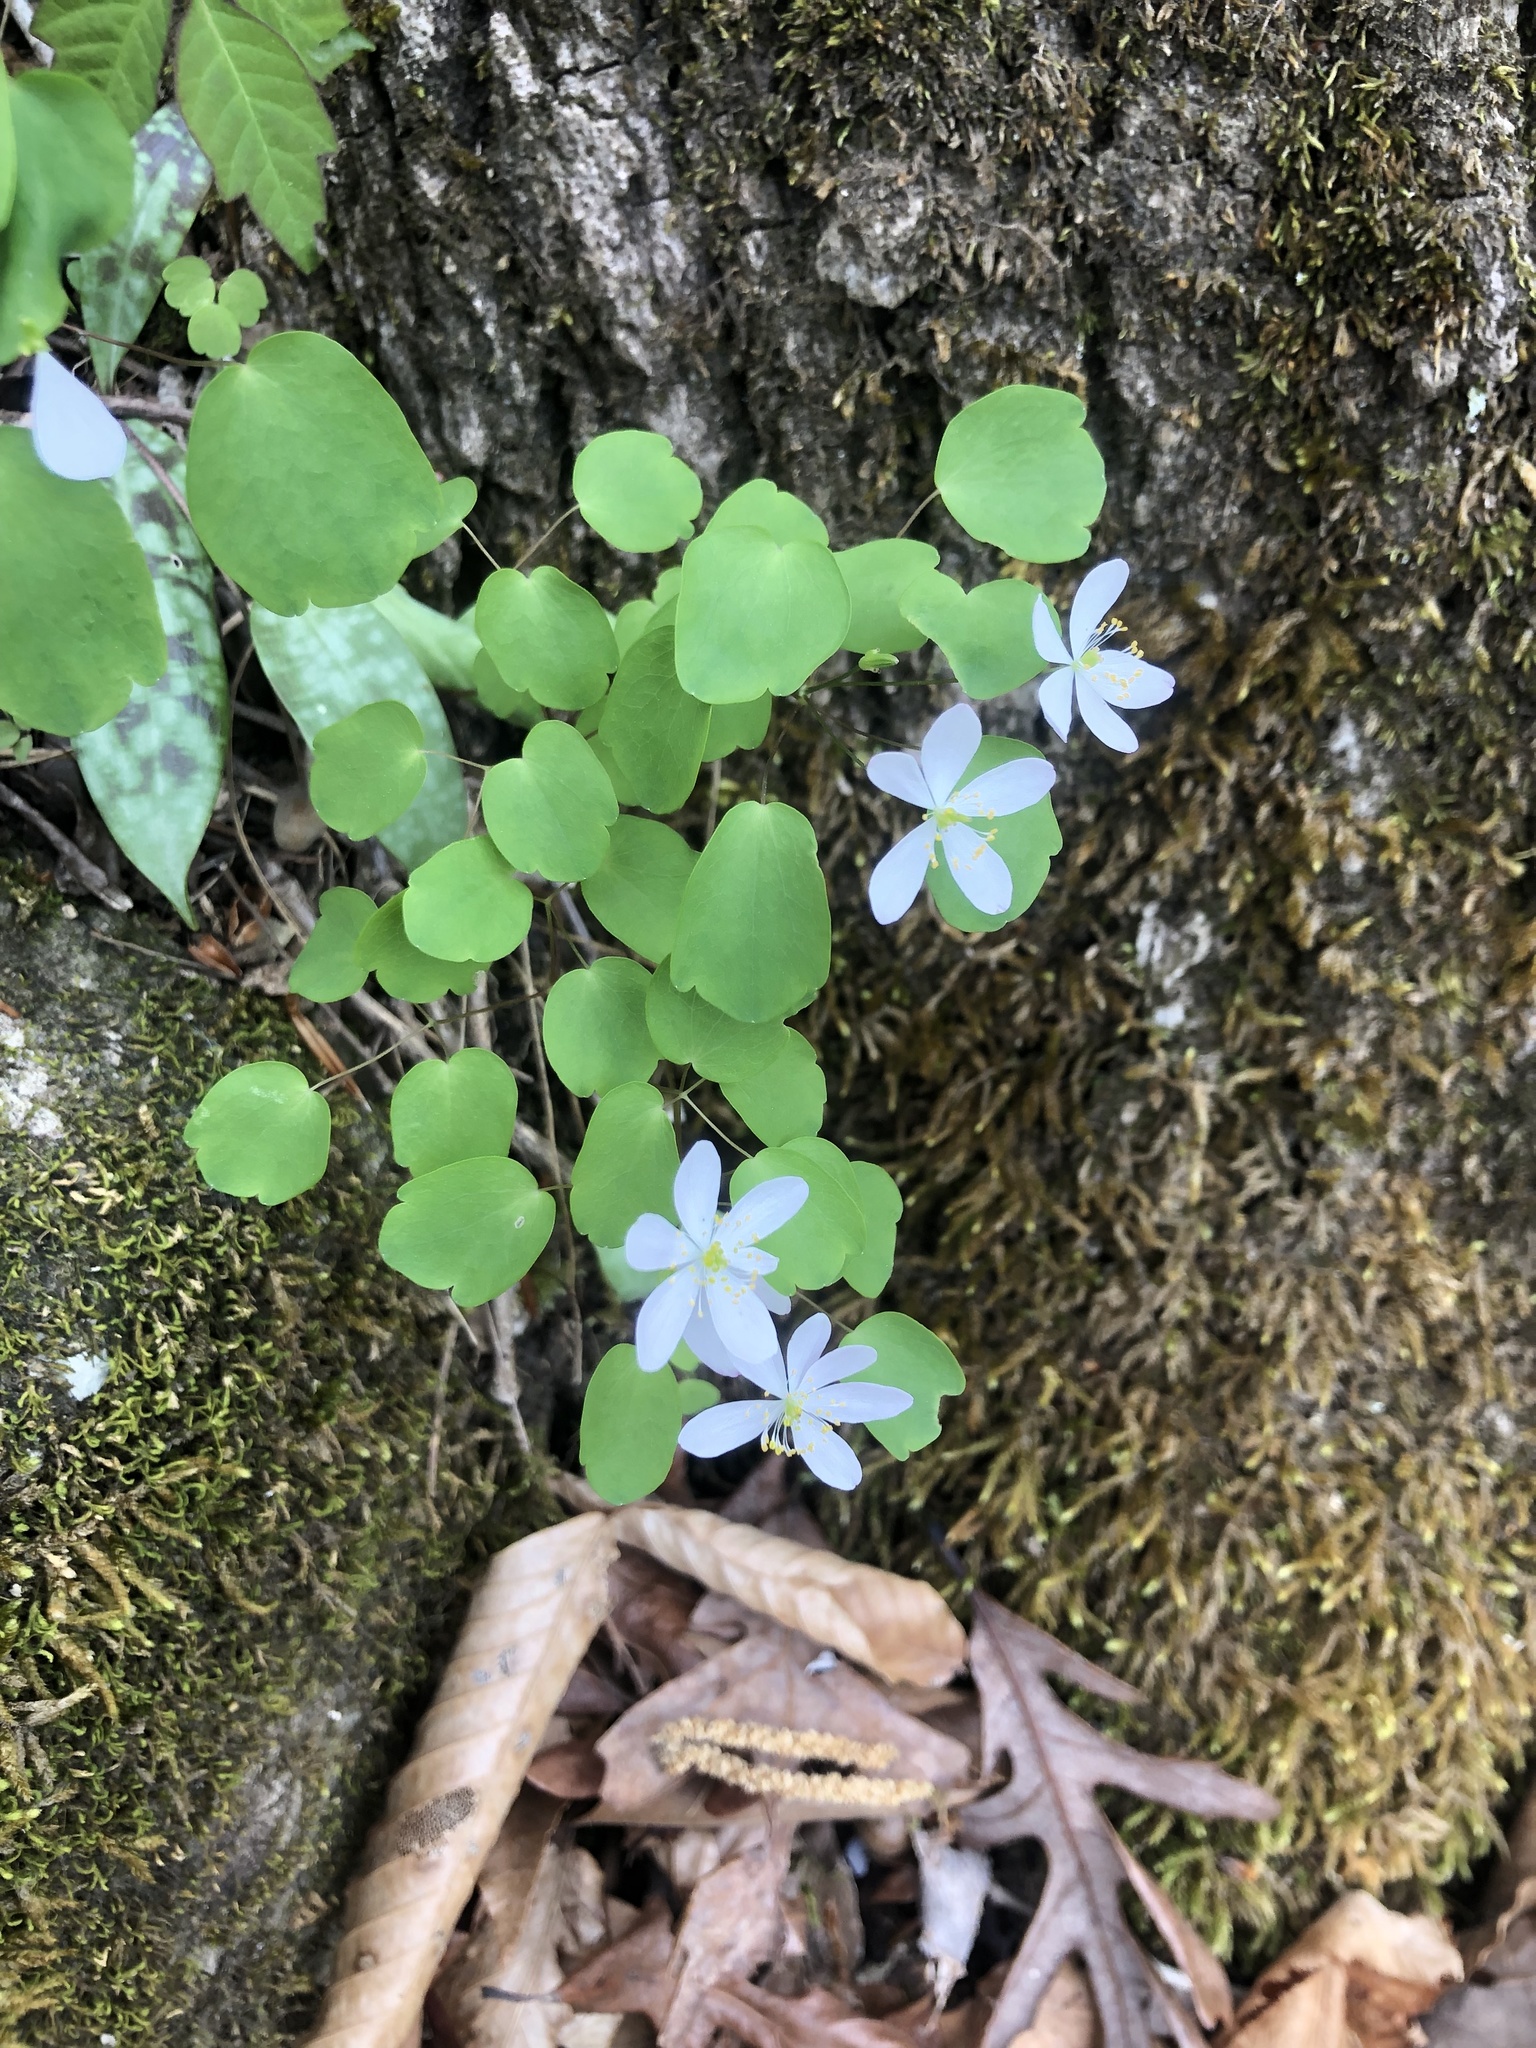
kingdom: Plantae
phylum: Tracheophyta
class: Magnoliopsida
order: Ranunculales
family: Ranunculaceae
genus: Thalictrum
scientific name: Thalictrum thalictroides
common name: Rue-anemone
